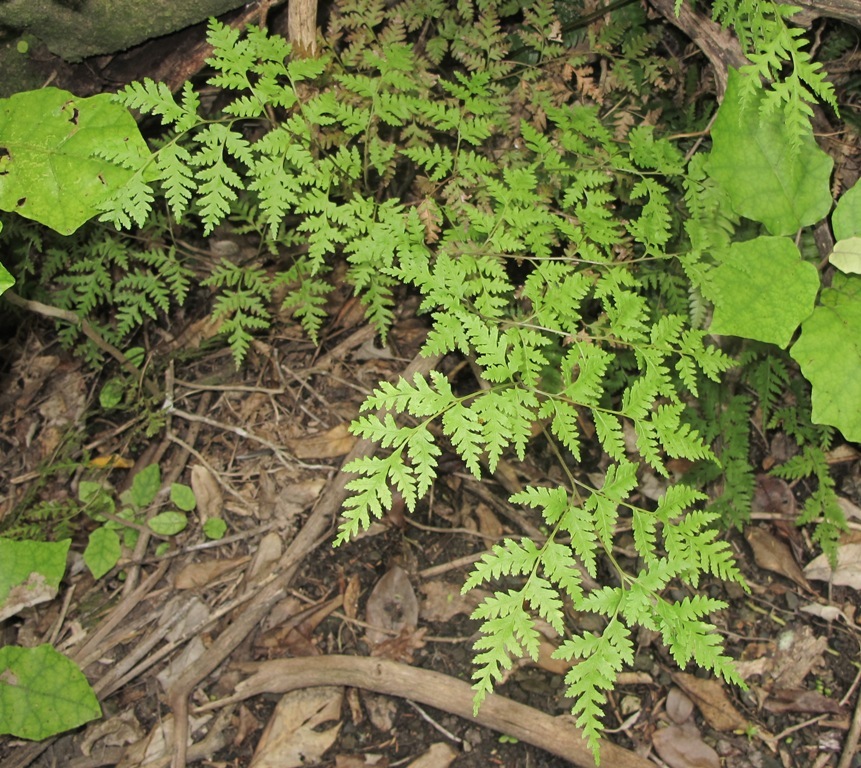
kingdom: Plantae
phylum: Tracheophyta
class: Polypodiopsida
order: Polypodiales
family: Pteridaceae
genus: Pteris
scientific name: Pteris macilenta
